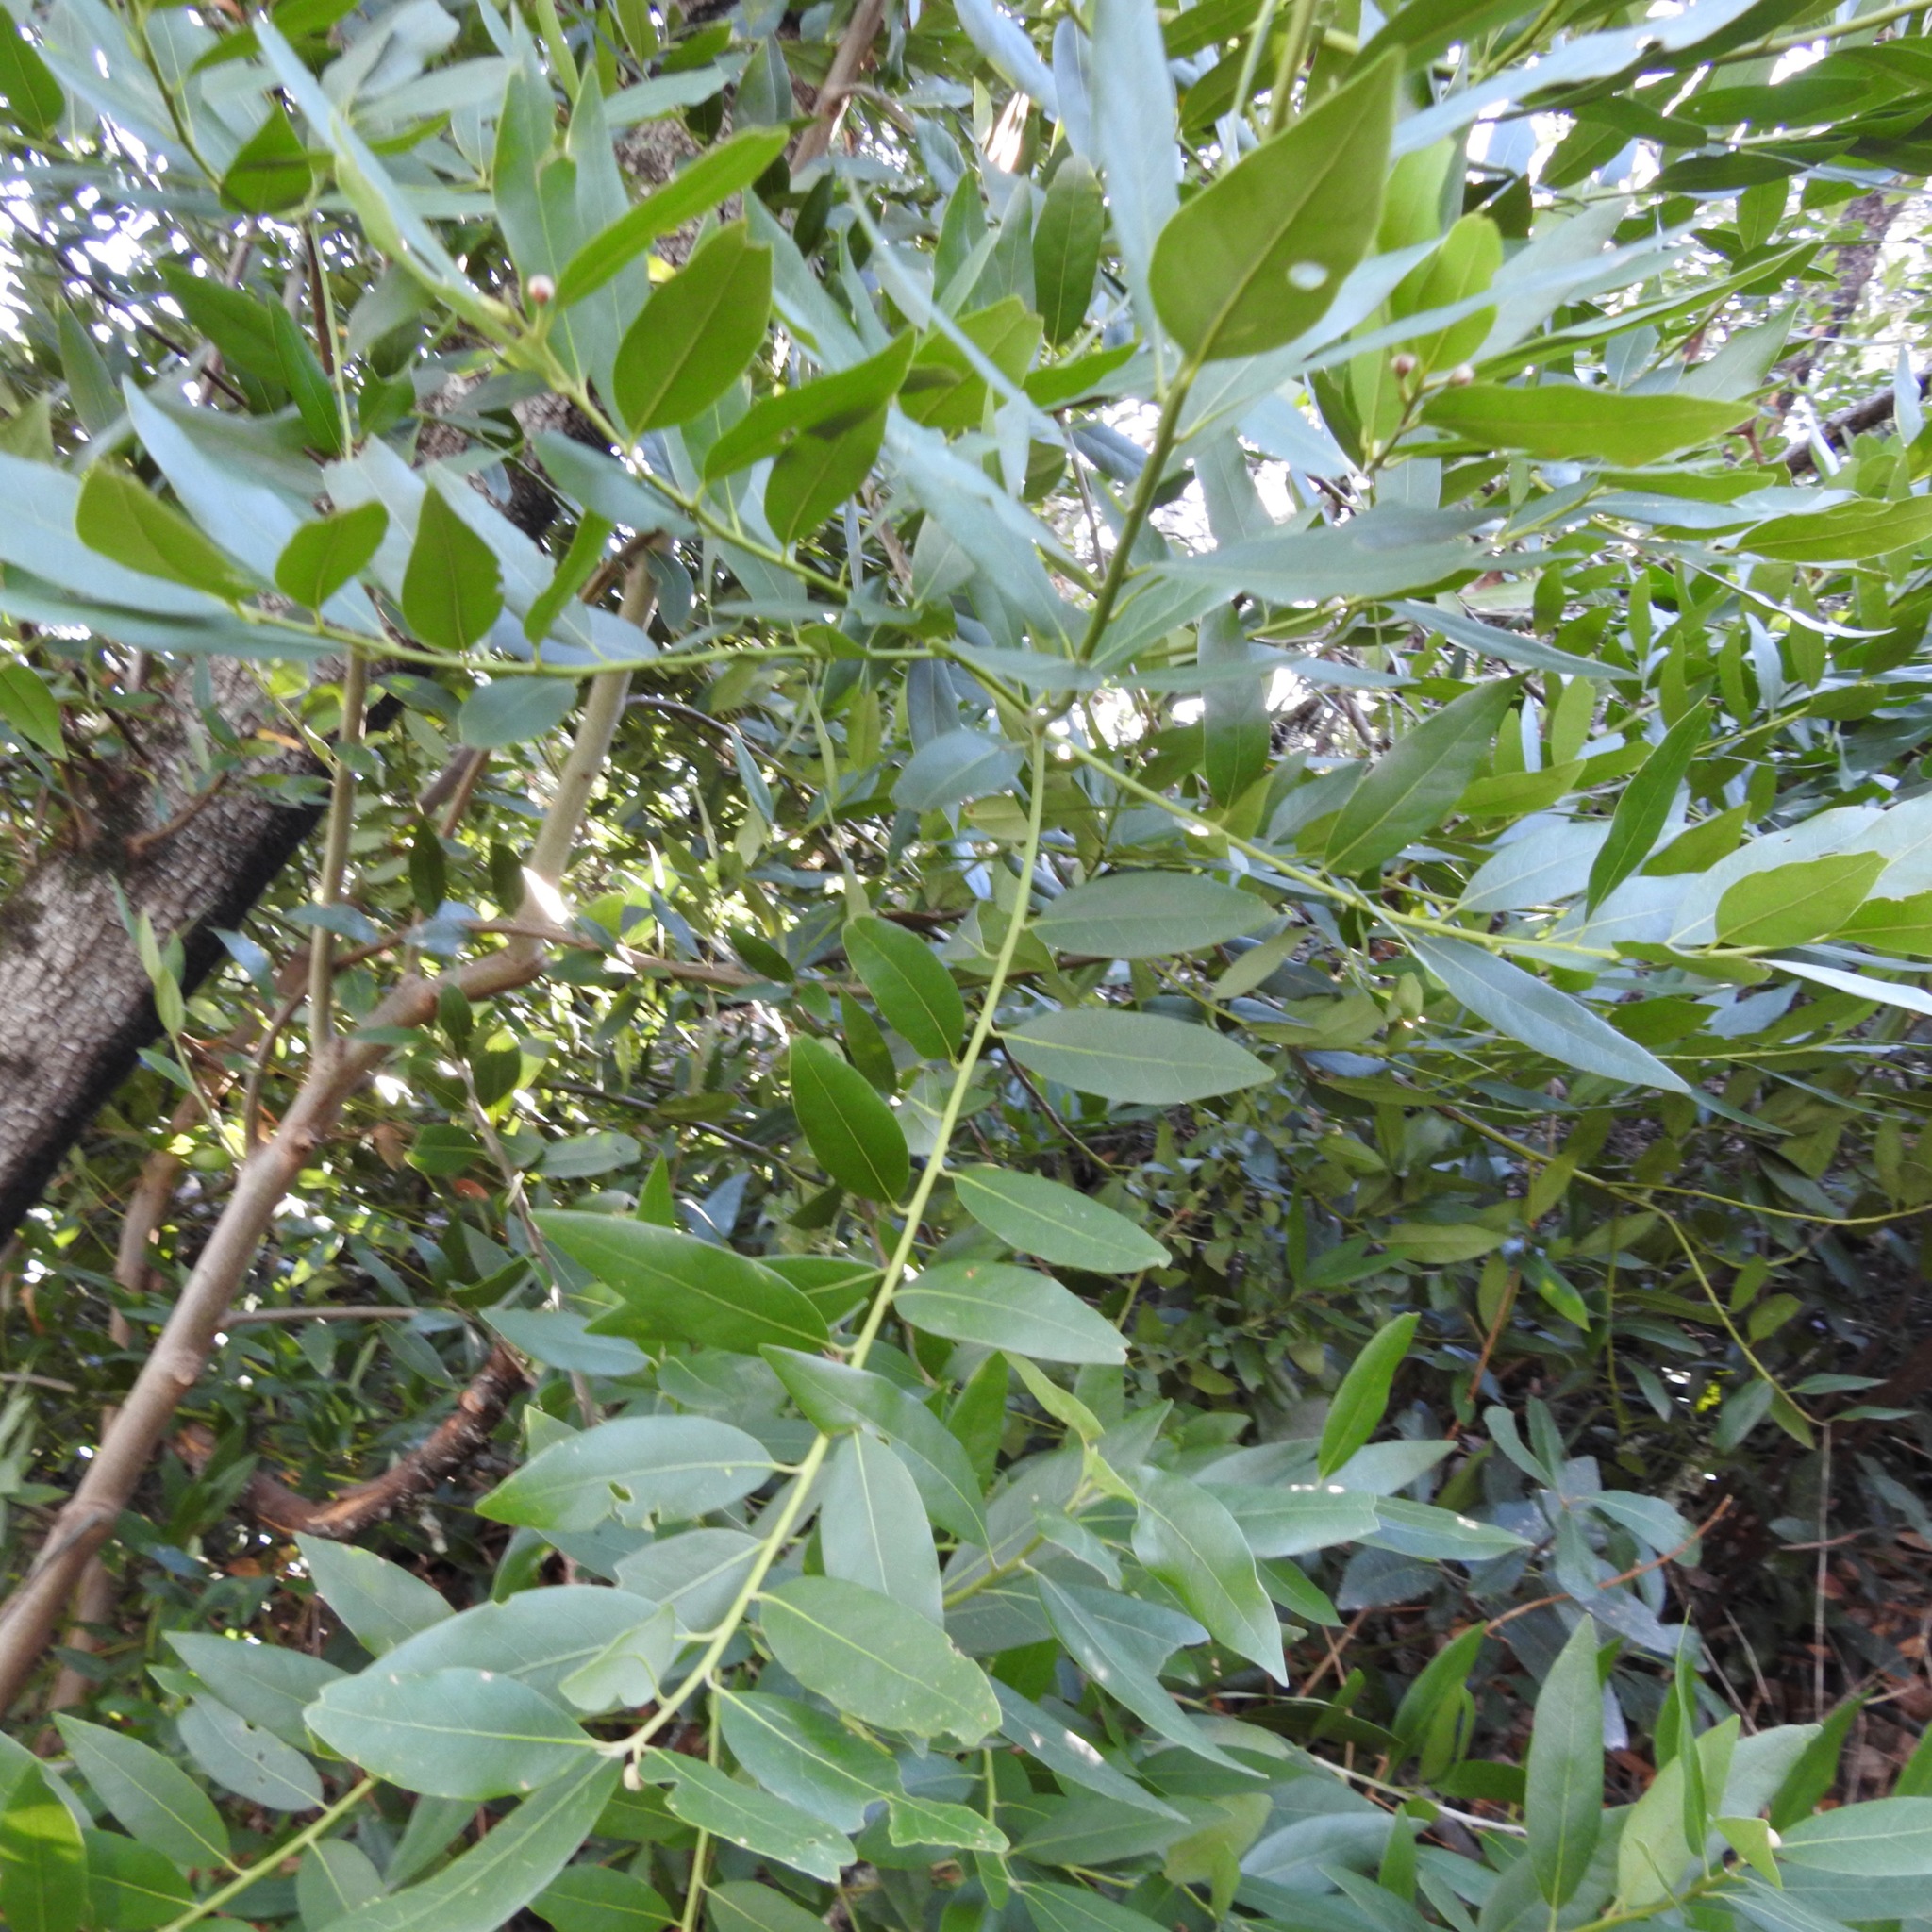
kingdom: Plantae
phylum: Tracheophyta
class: Magnoliopsida
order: Laurales
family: Lauraceae
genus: Umbellularia
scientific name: Umbellularia californica
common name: California bay
